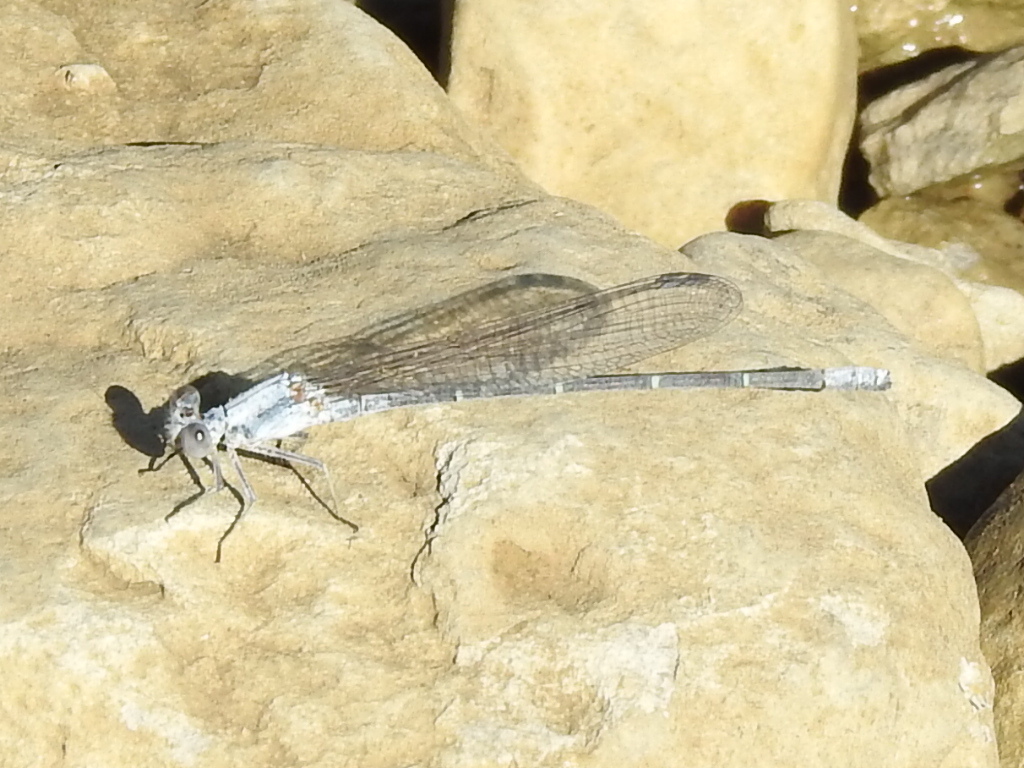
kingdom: Animalia
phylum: Arthropoda
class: Insecta
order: Odonata
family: Coenagrionidae
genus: Argia
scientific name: Argia moesta
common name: Powdered dancer
